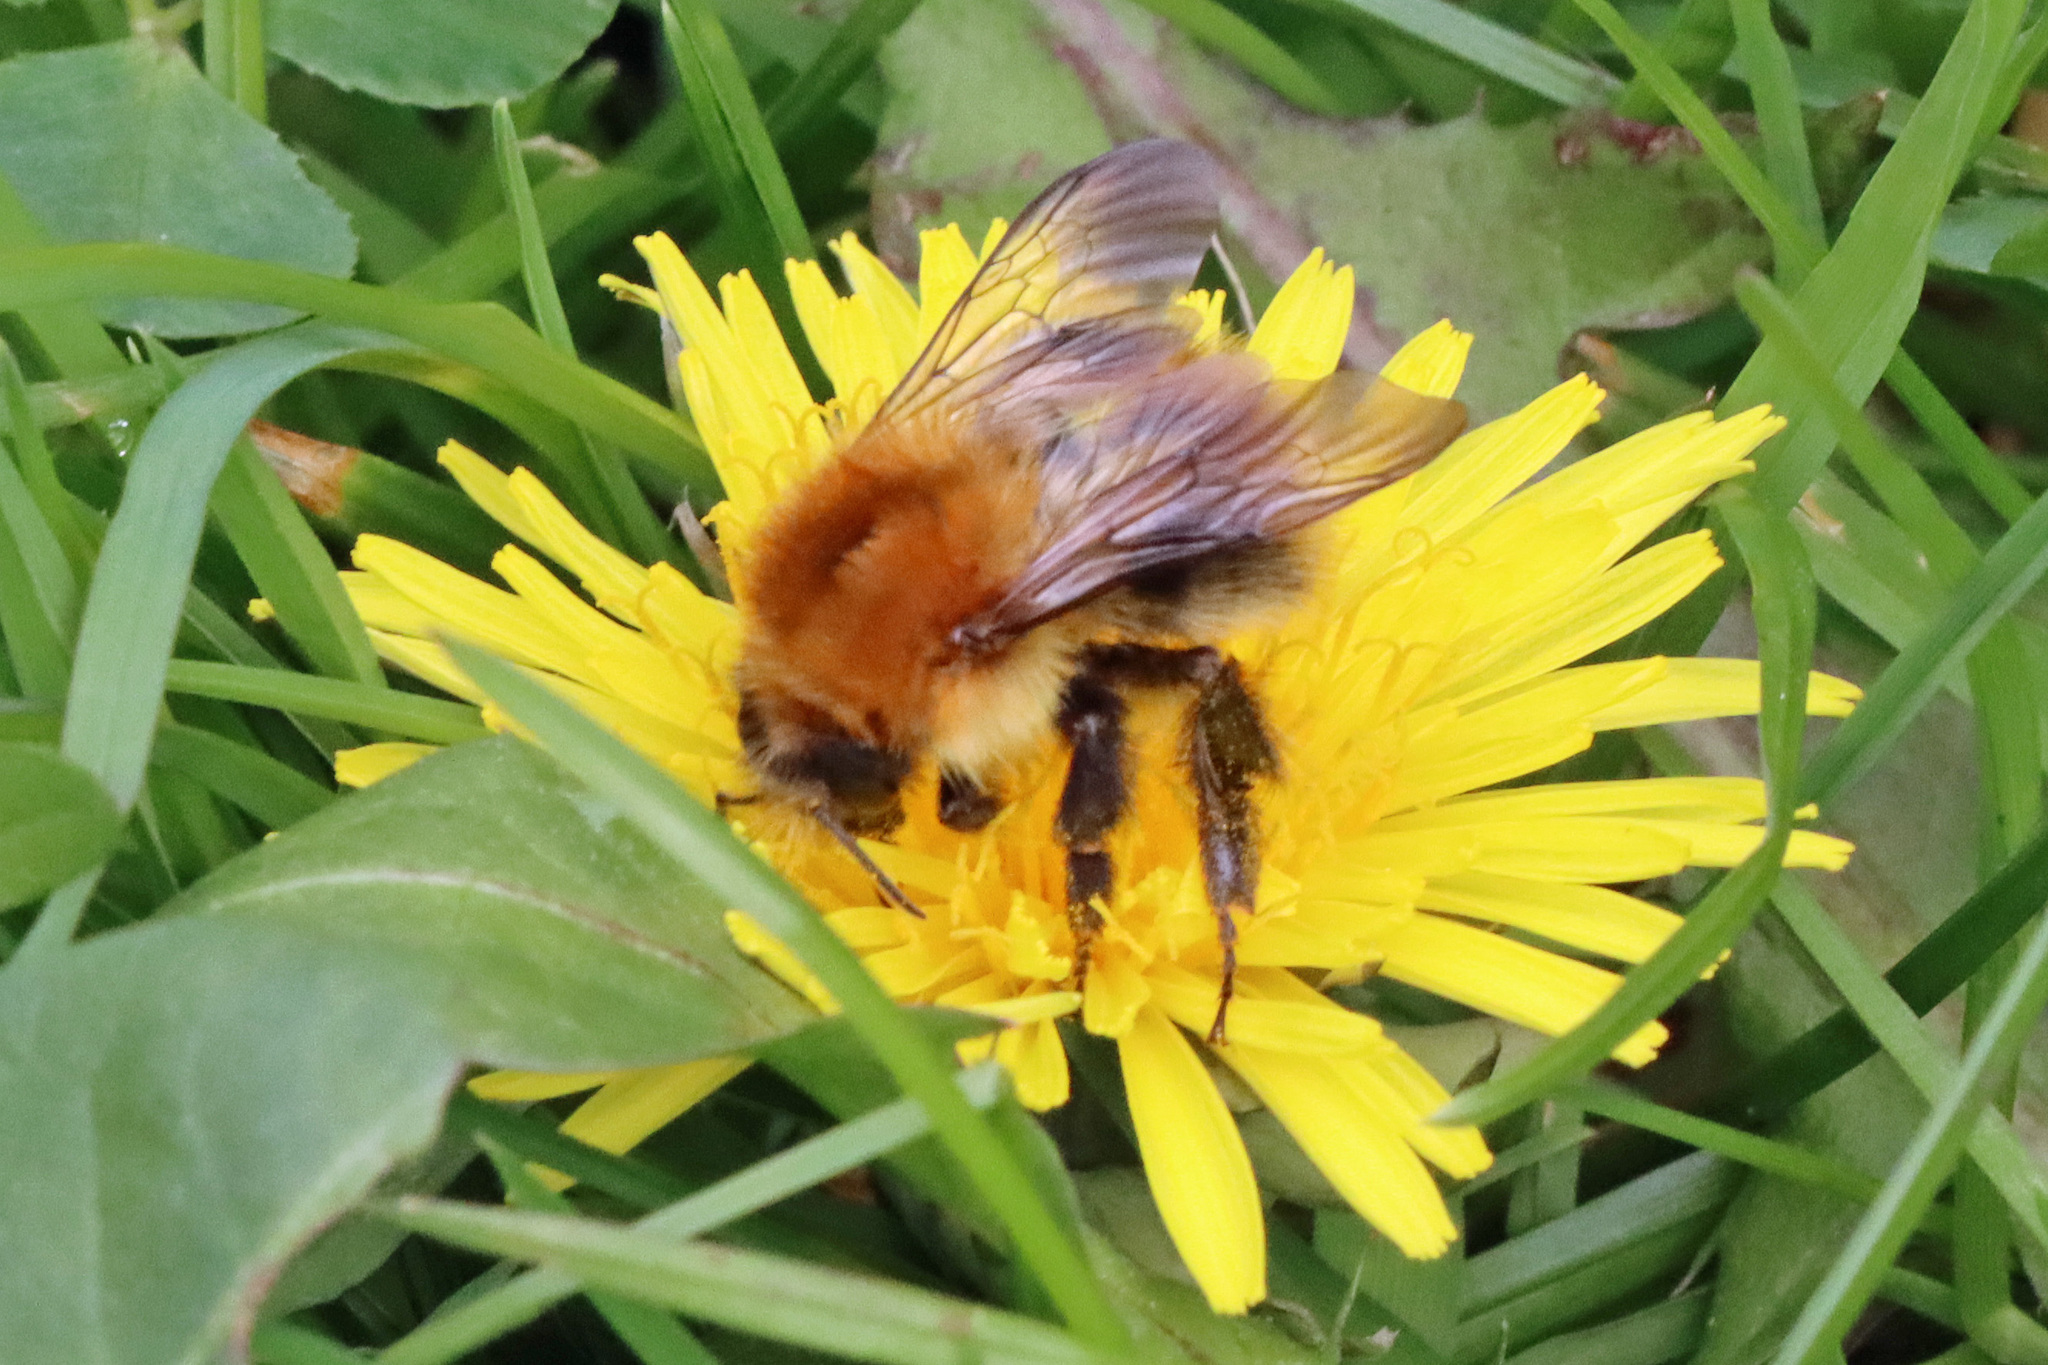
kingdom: Animalia
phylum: Arthropoda
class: Insecta
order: Hymenoptera
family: Apidae
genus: Bombus
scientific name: Bombus pascuorum
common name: Common carder bee
